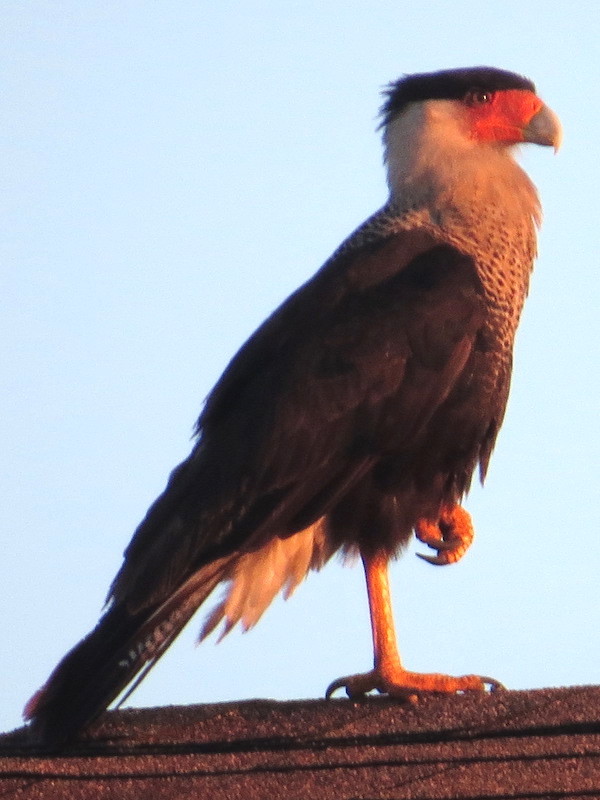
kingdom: Animalia
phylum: Chordata
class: Aves
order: Falconiformes
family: Falconidae
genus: Caracara
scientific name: Caracara plancus
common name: Southern caracara
